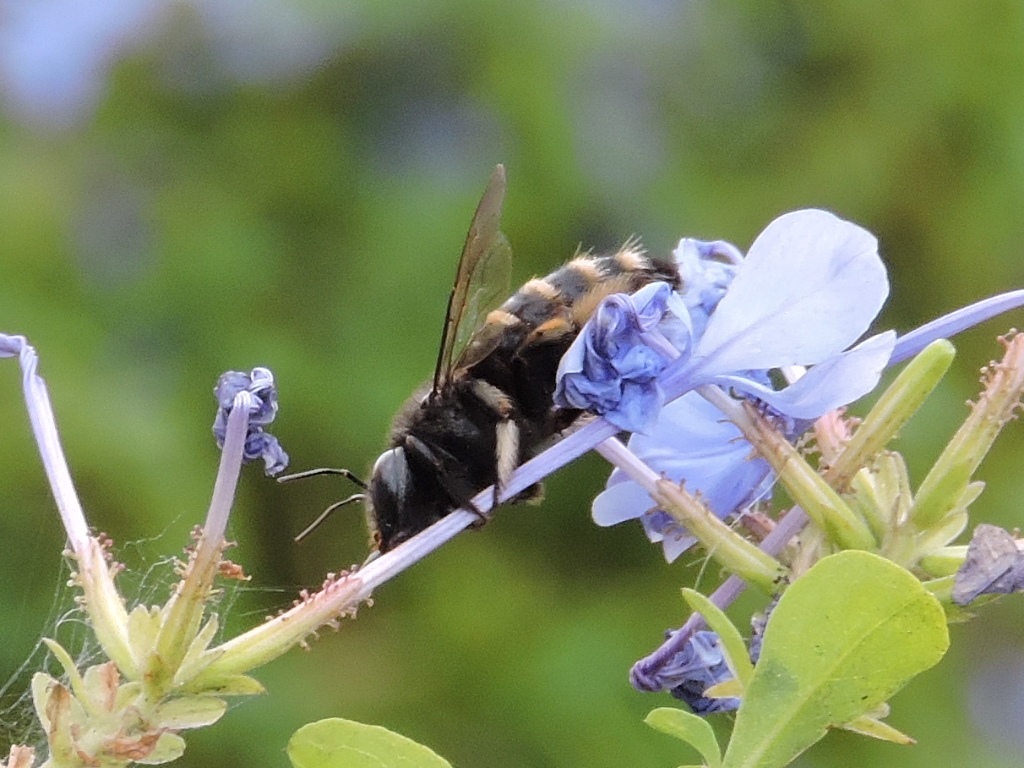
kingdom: Animalia
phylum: Arthropoda
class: Insecta
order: Hymenoptera
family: Apidae
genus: Xylocopa
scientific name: Xylocopa tabaniformis
